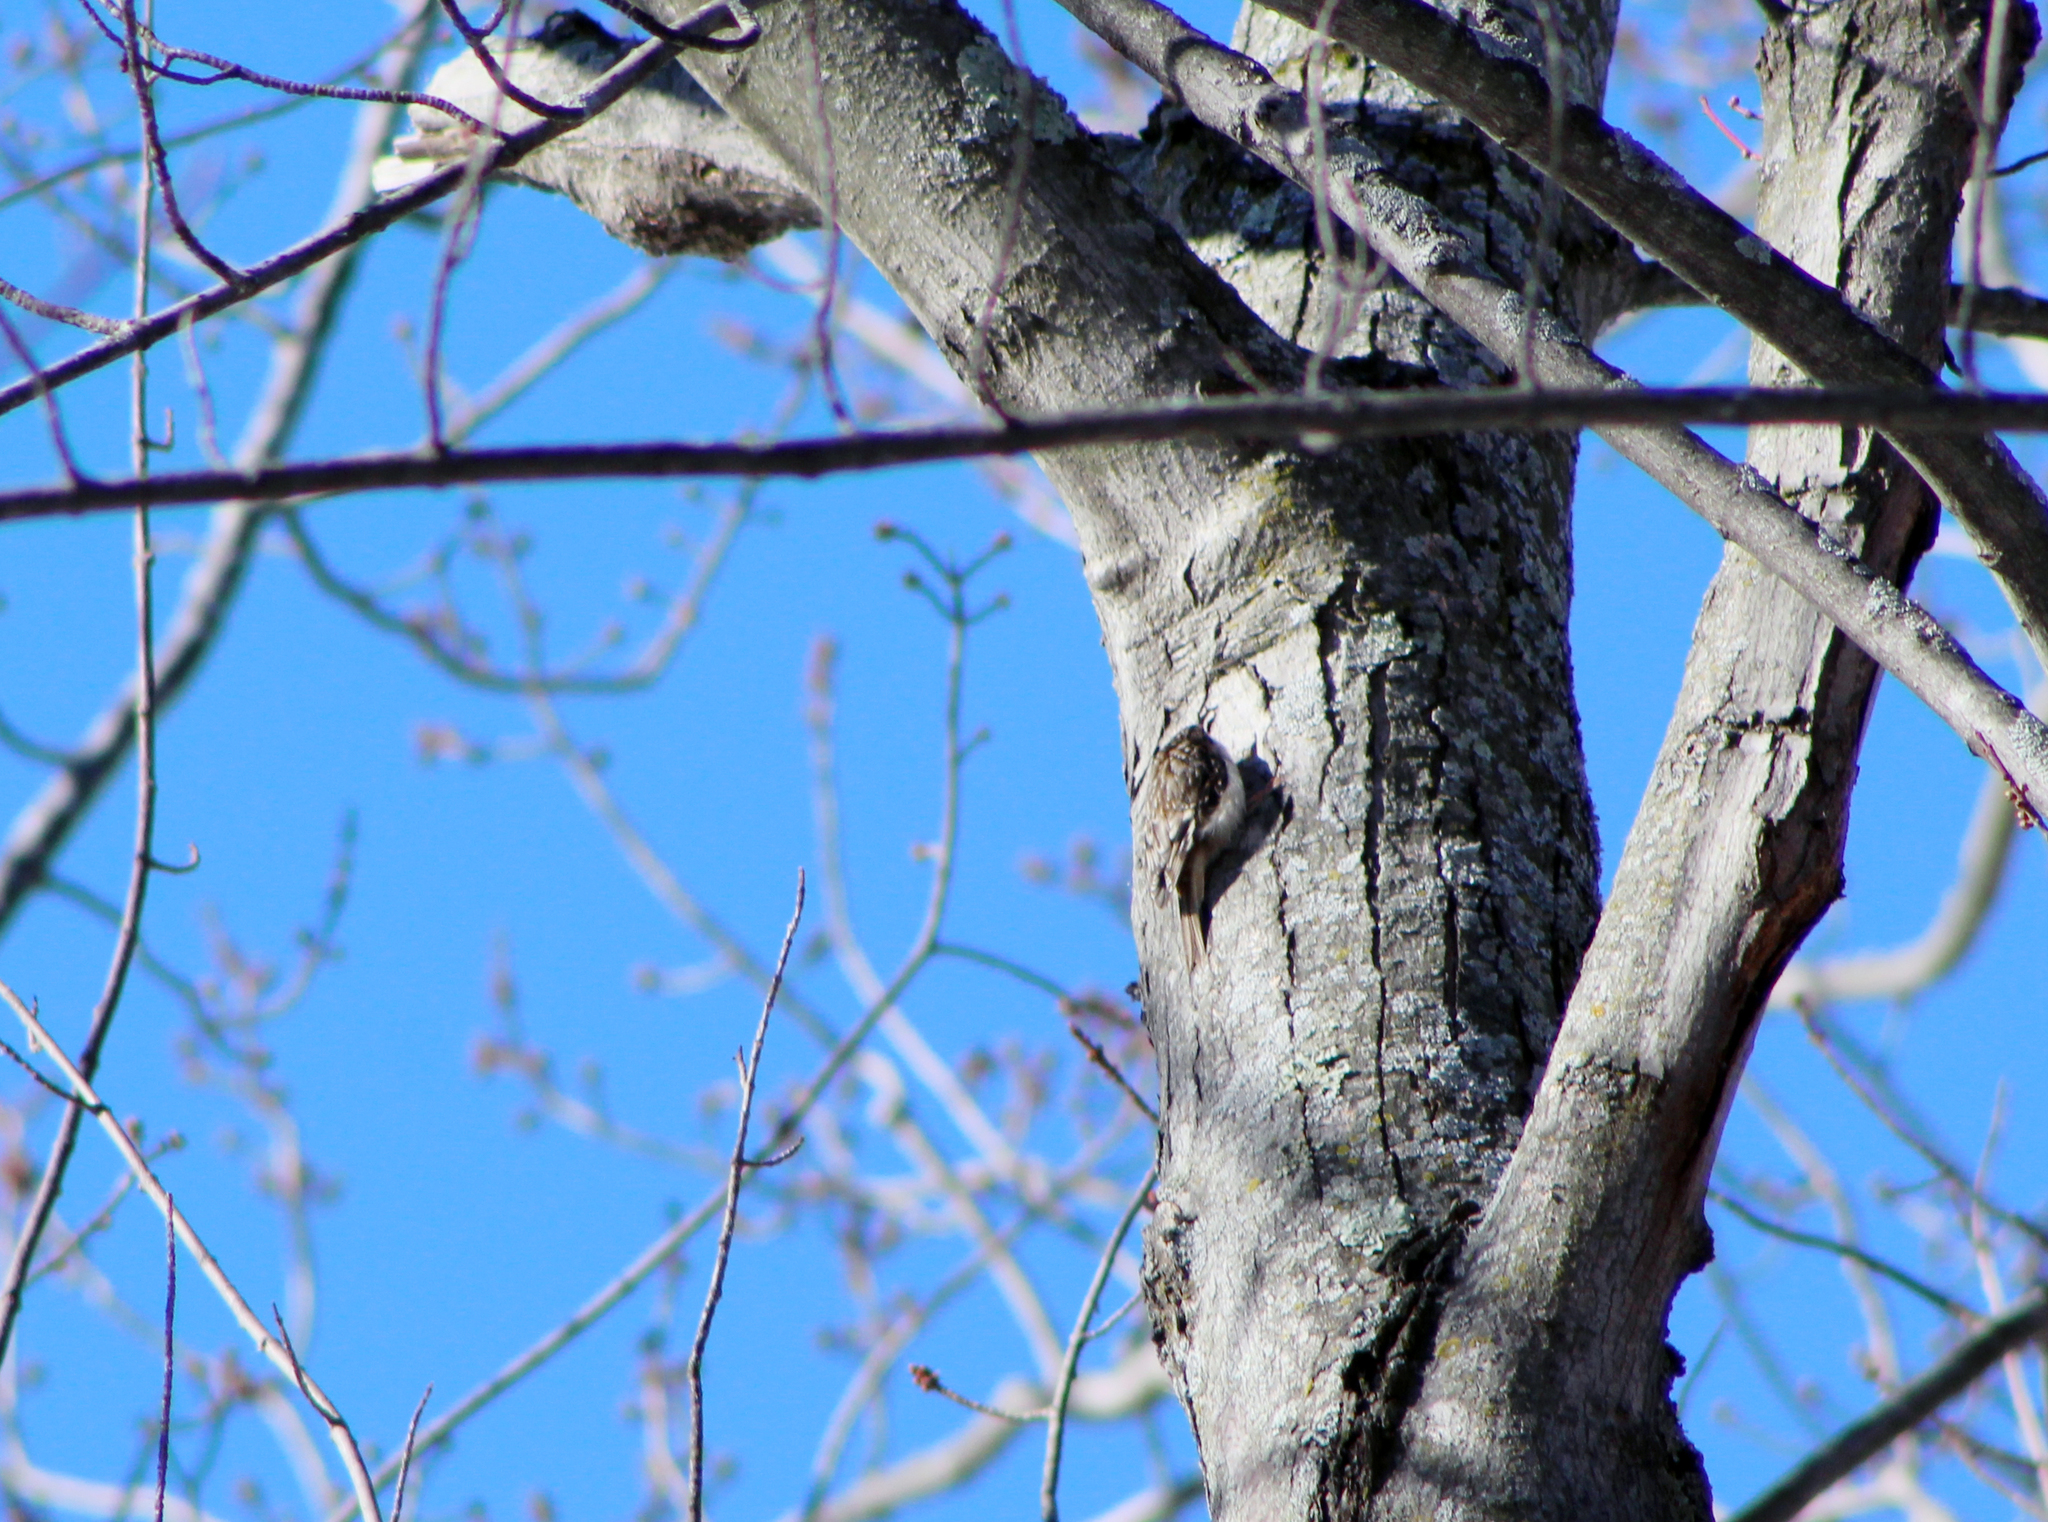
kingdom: Animalia
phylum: Chordata
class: Aves
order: Passeriformes
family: Certhiidae
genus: Certhia
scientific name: Certhia americana
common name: Brown creeper
